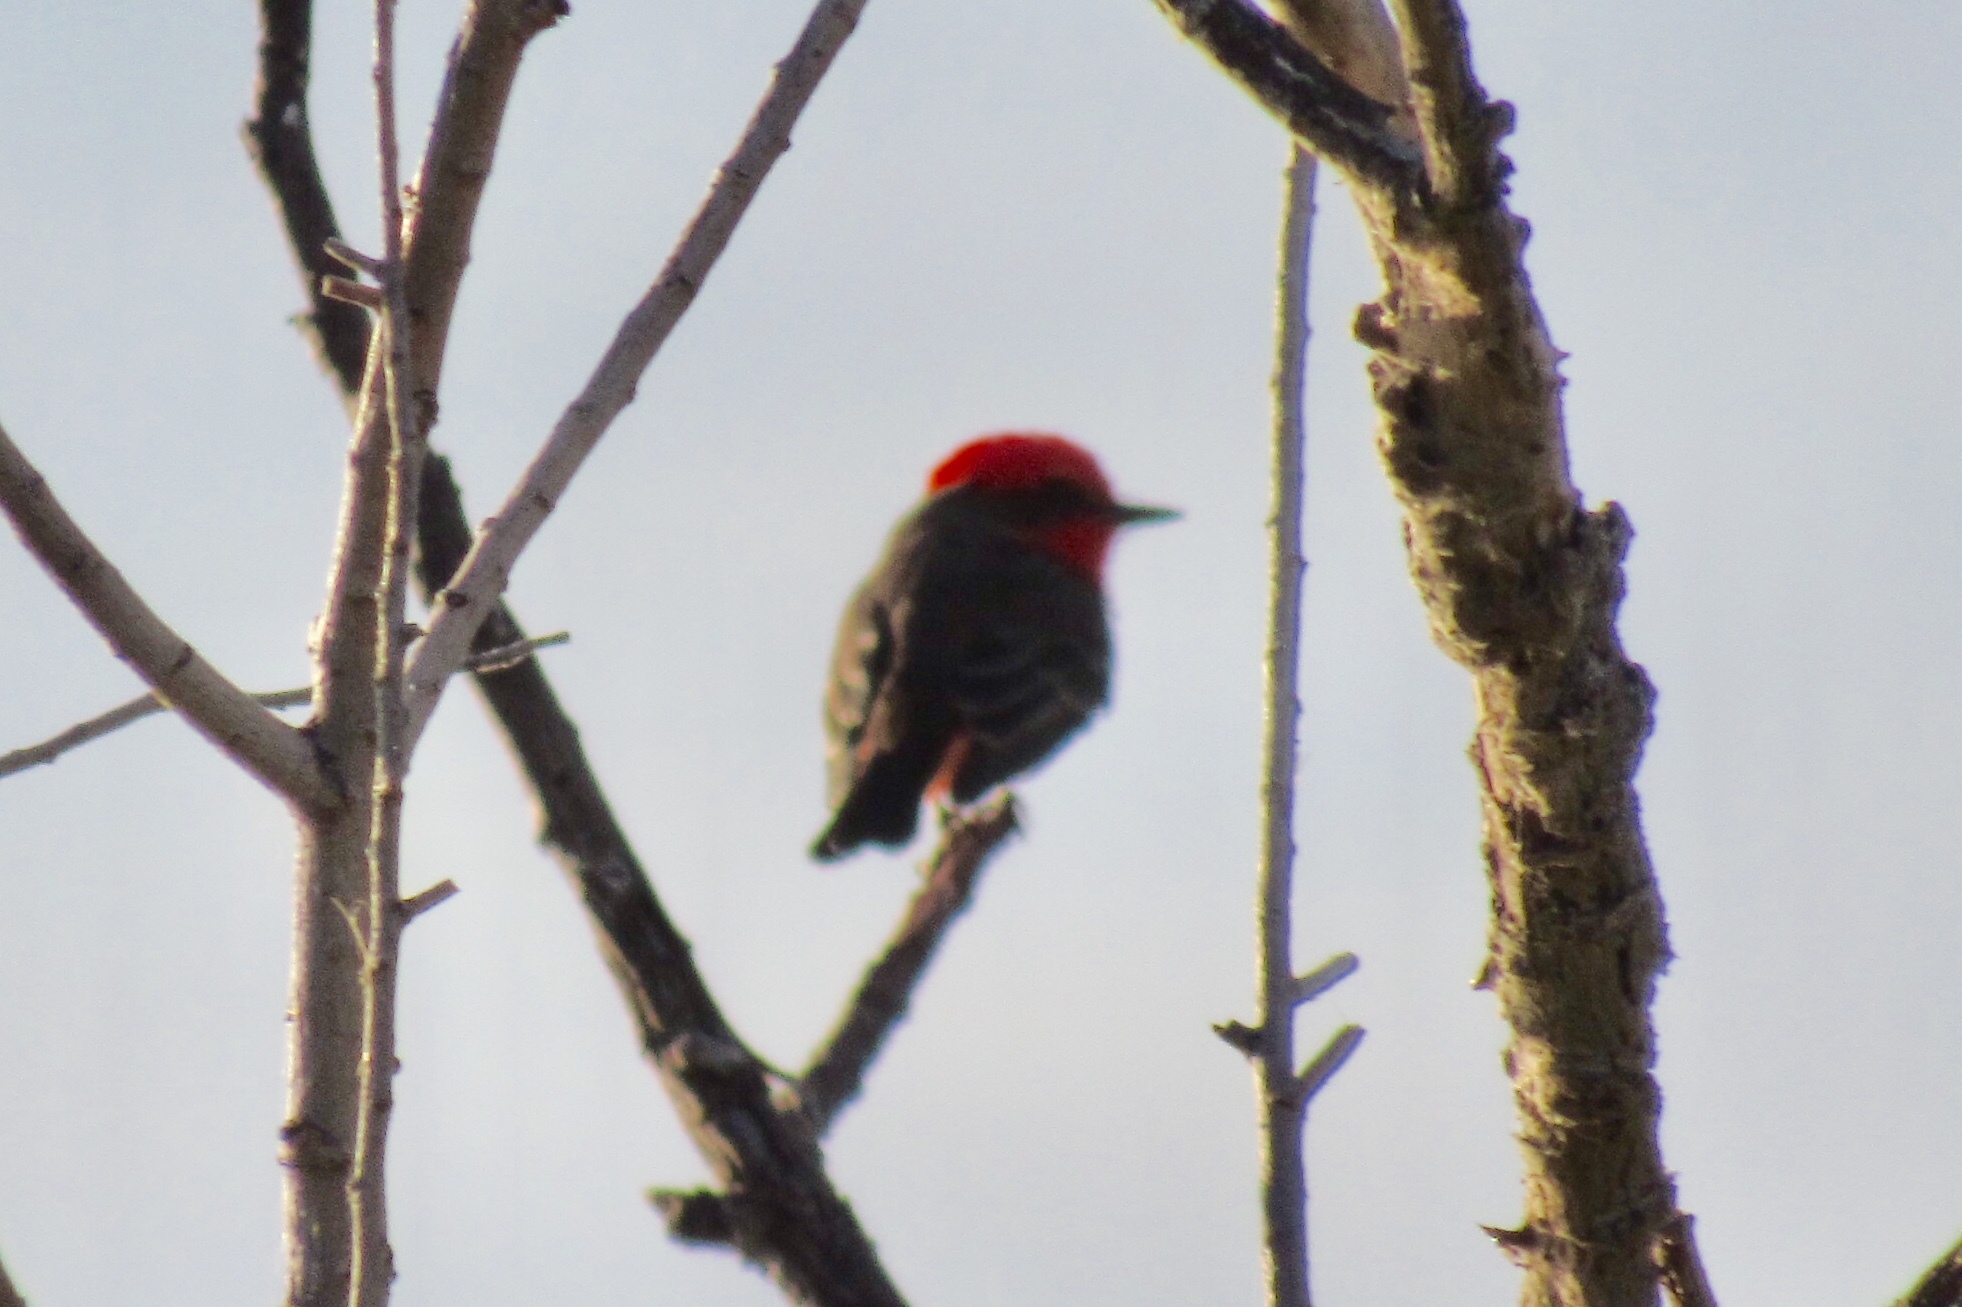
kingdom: Animalia
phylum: Chordata
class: Aves
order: Passeriformes
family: Tyrannidae
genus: Pyrocephalus
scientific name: Pyrocephalus rubinus
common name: Vermilion flycatcher
